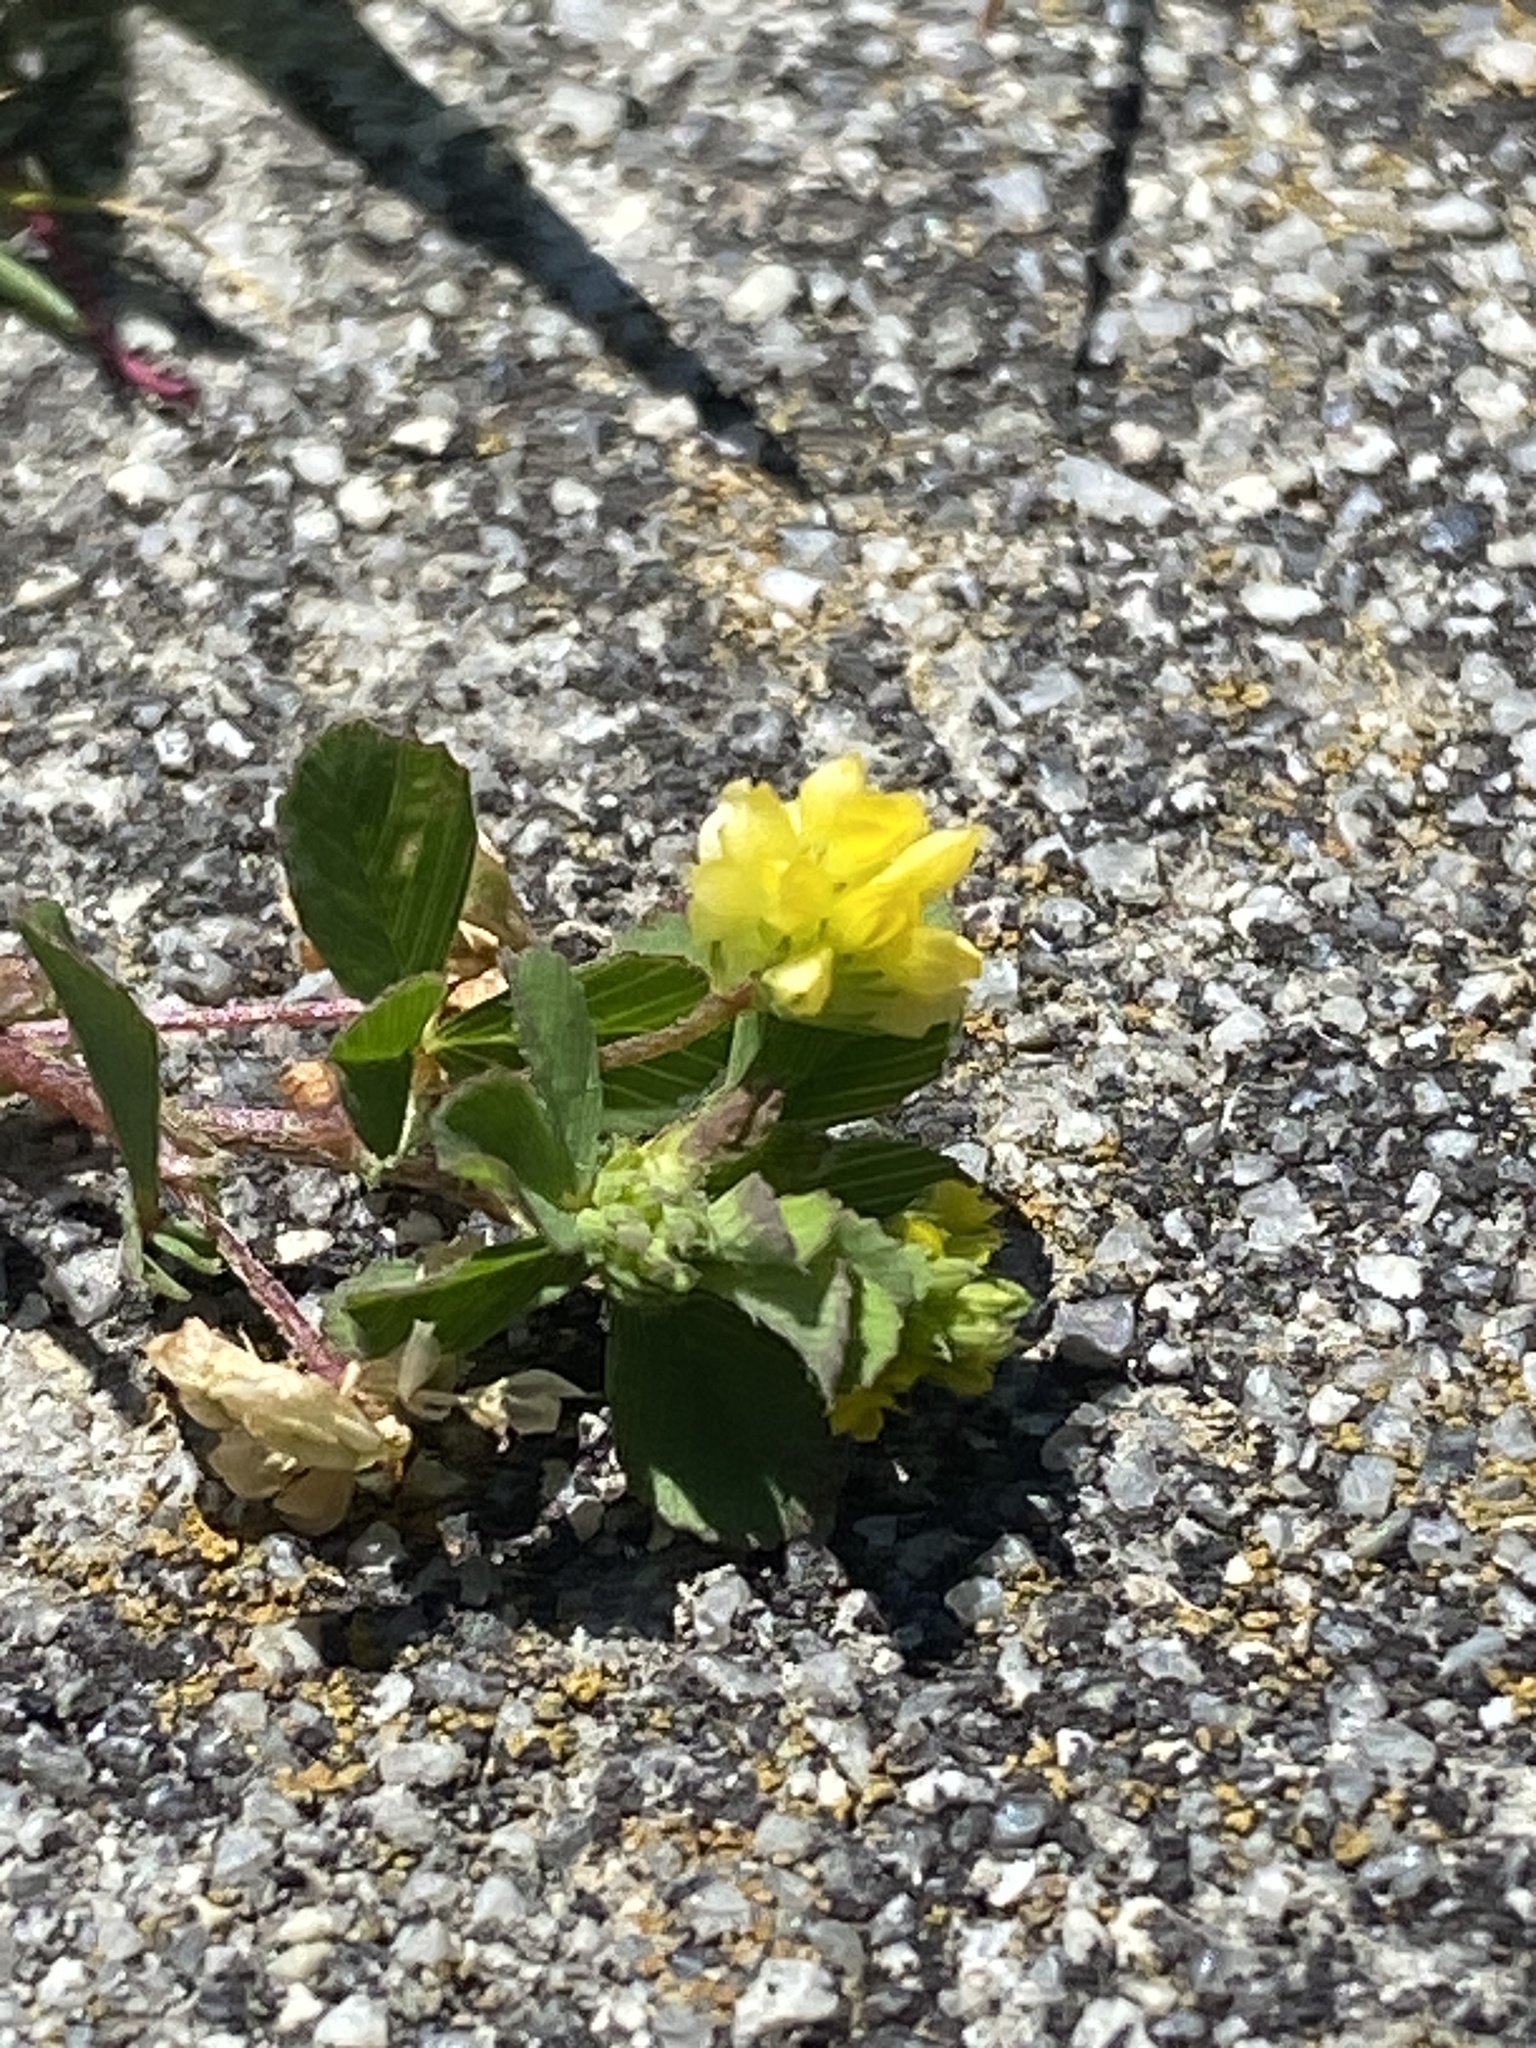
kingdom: Plantae
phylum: Tracheophyta
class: Magnoliopsida
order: Fabales
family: Fabaceae
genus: Trifolium
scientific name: Trifolium dubium
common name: Suckling clover
